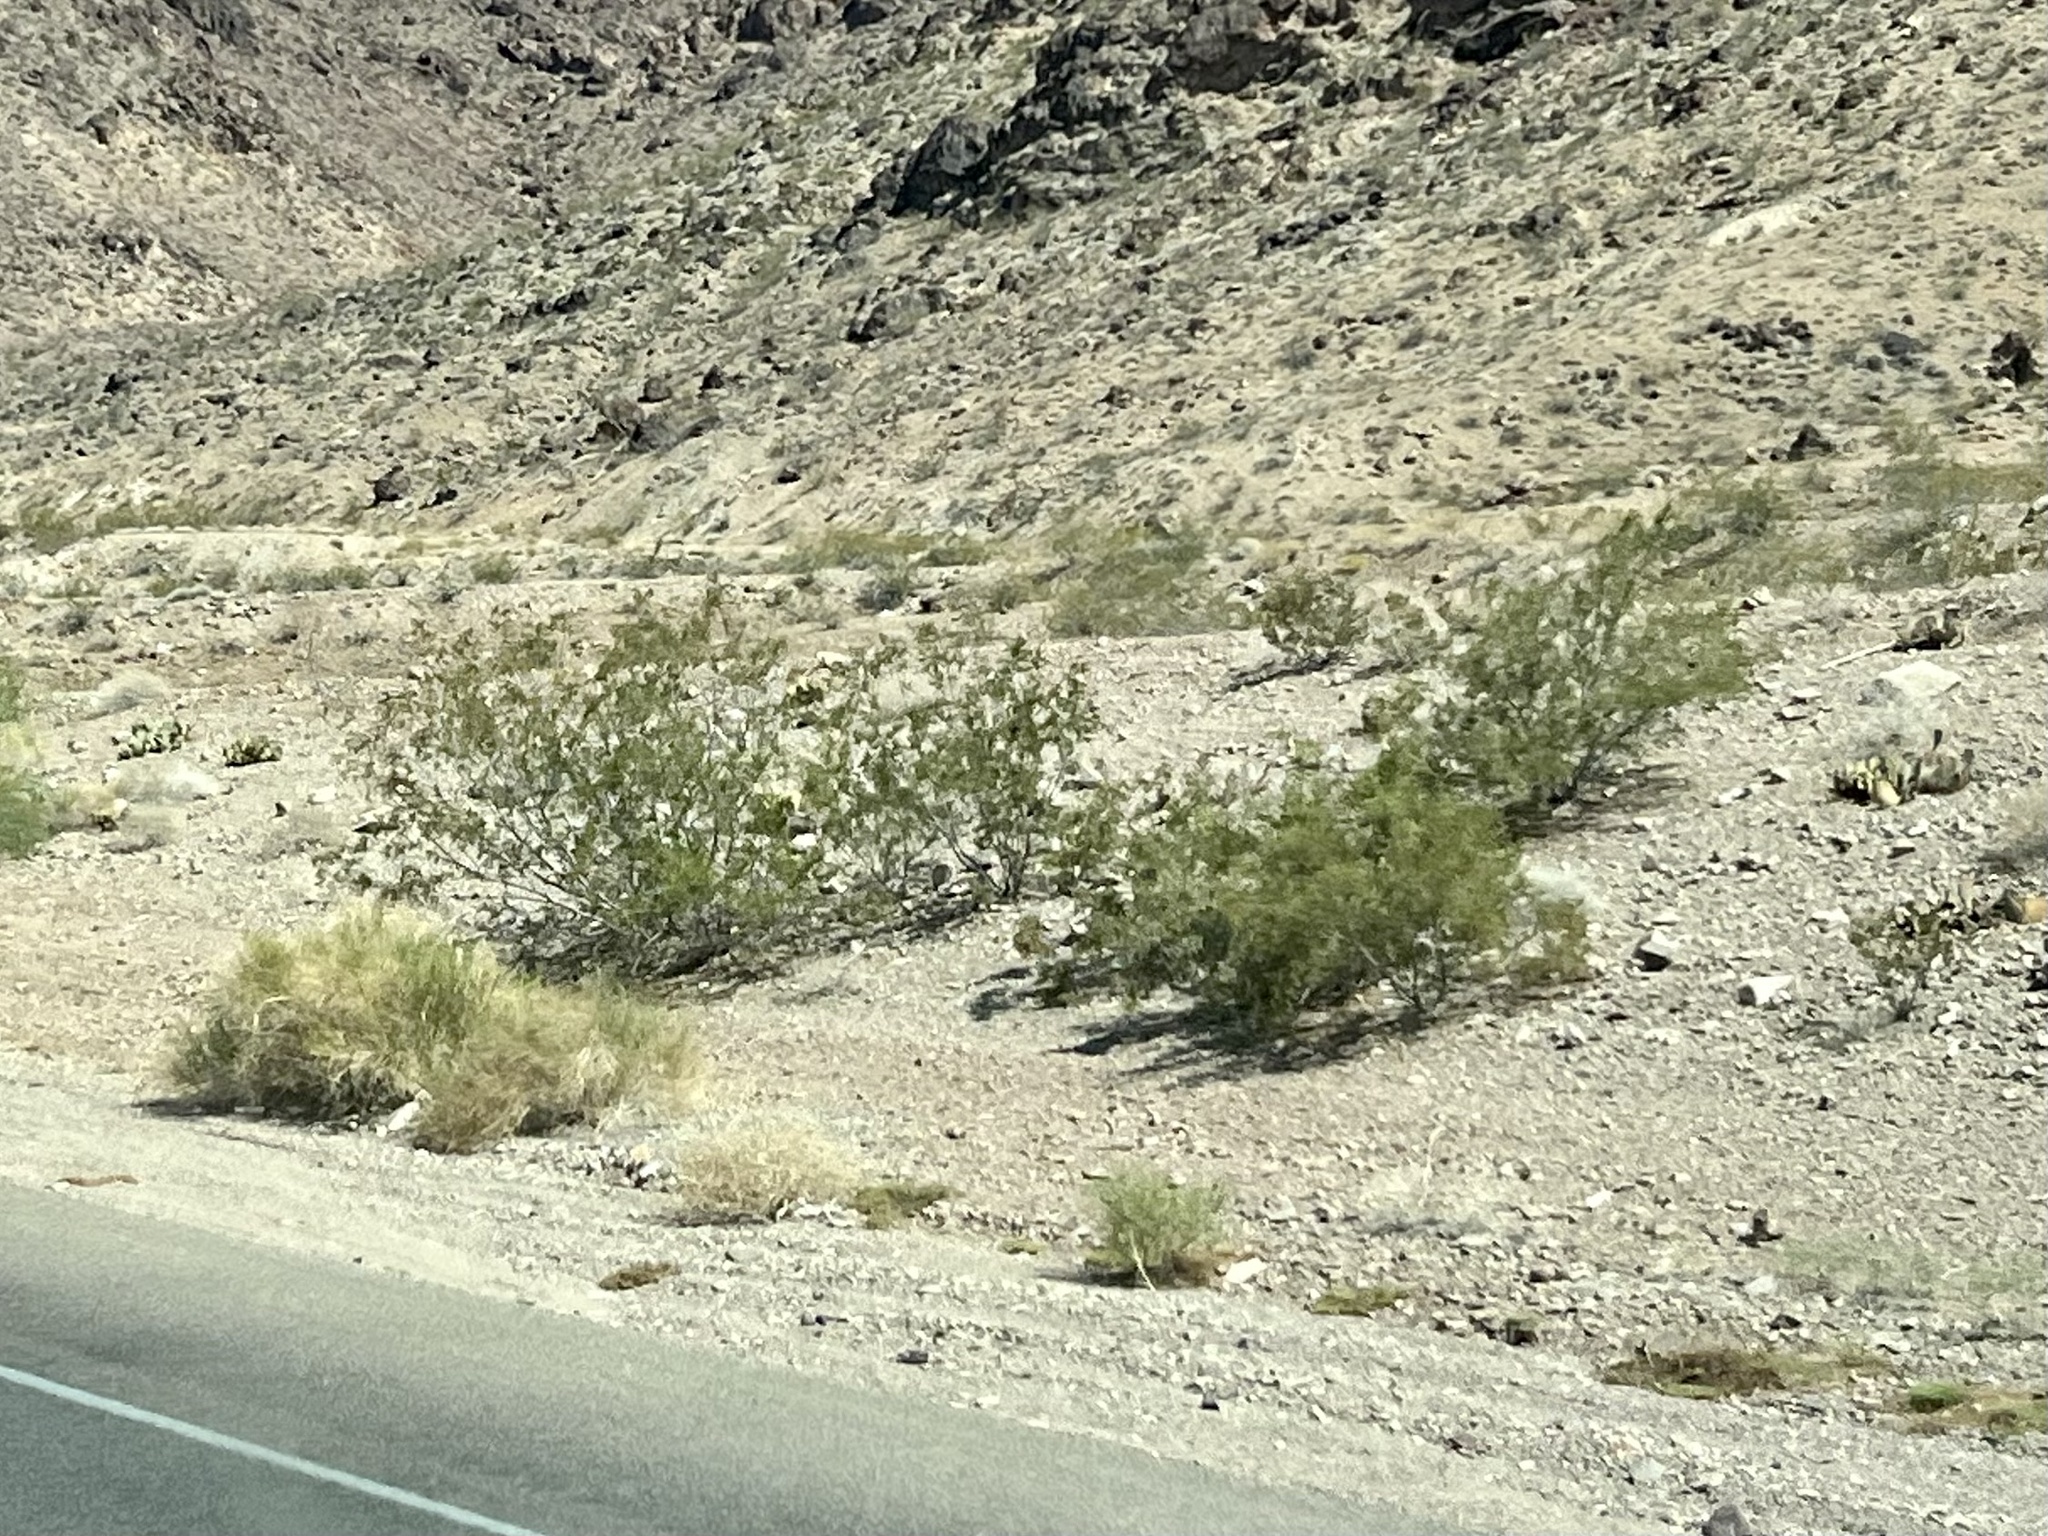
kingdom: Plantae
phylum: Tracheophyta
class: Magnoliopsida
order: Zygophyllales
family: Zygophyllaceae
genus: Larrea
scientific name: Larrea tridentata
